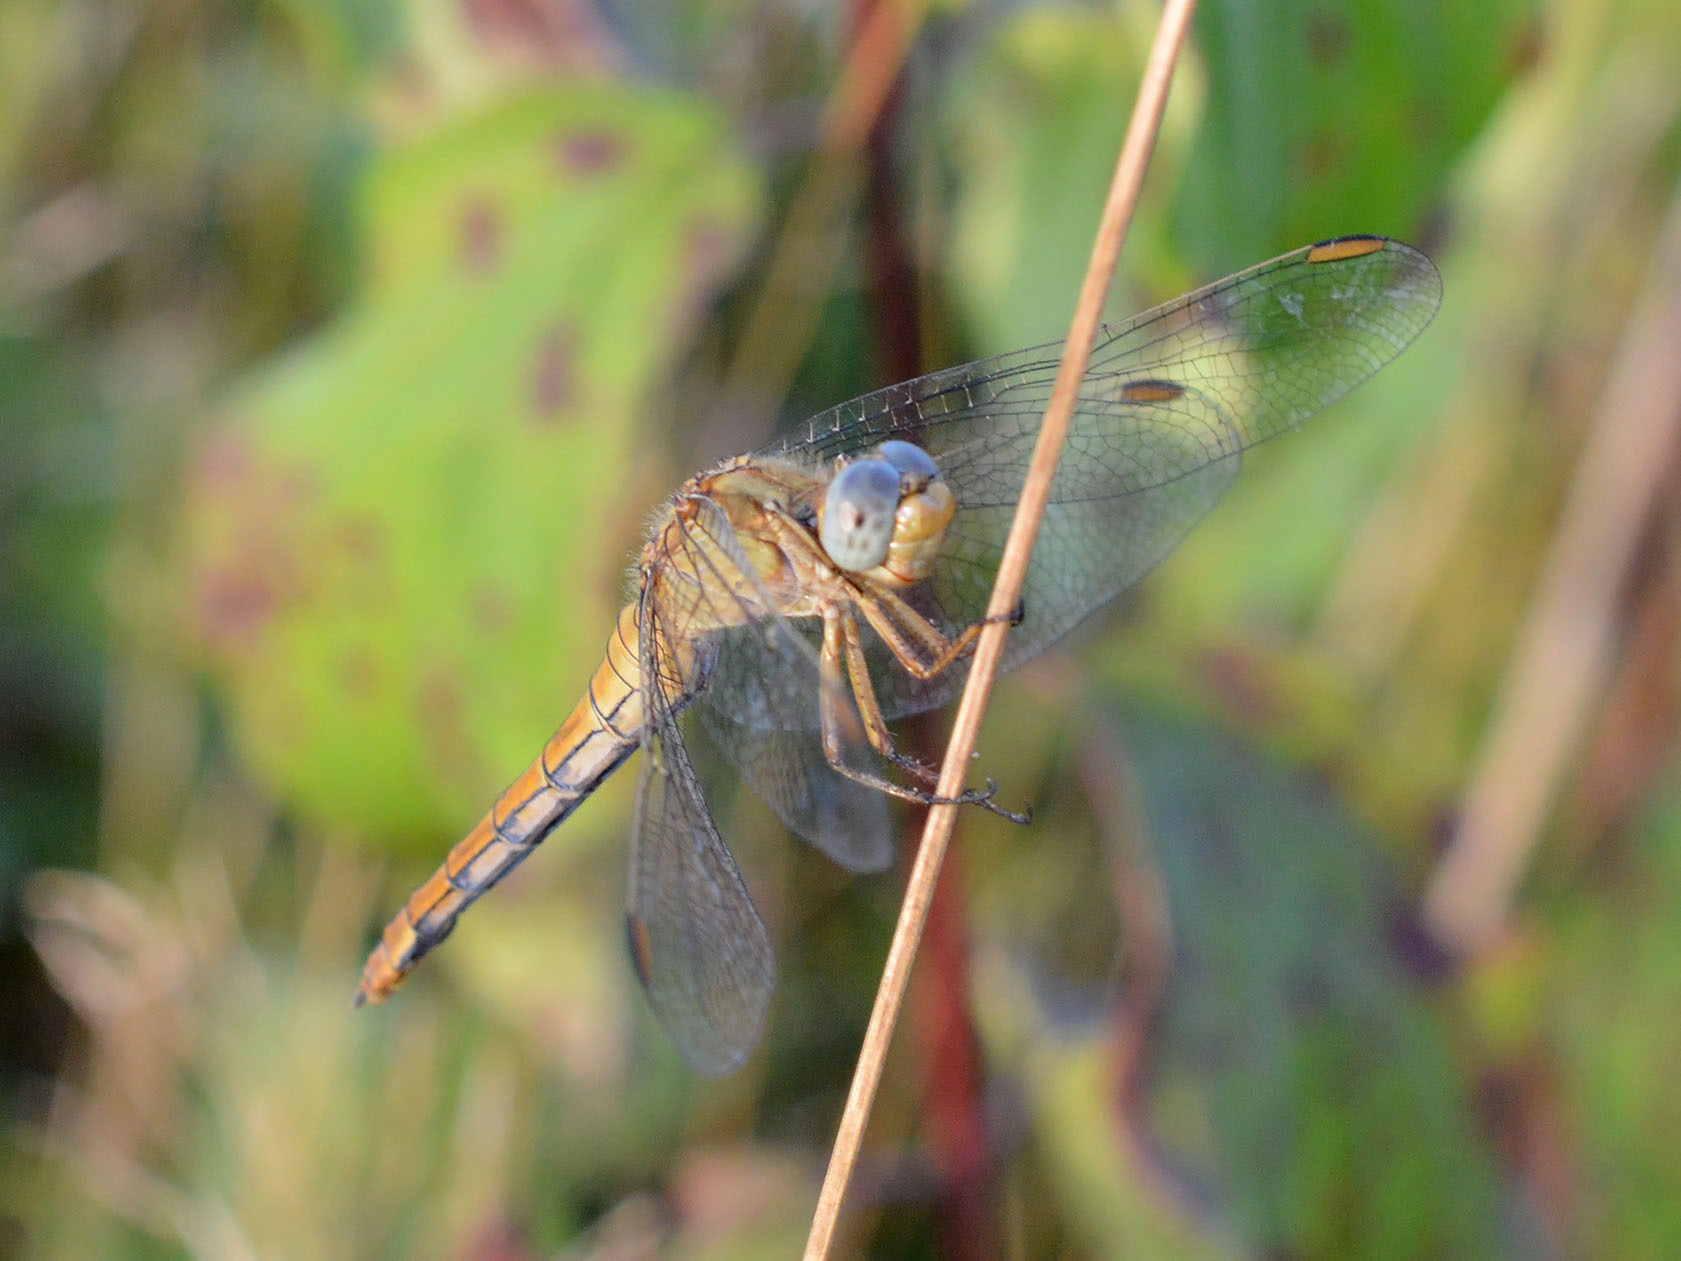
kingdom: Animalia
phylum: Arthropoda
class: Insecta
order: Odonata
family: Libellulidae
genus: Orthetrum
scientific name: Orthetrum coerulescens
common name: Keeled skimmer
